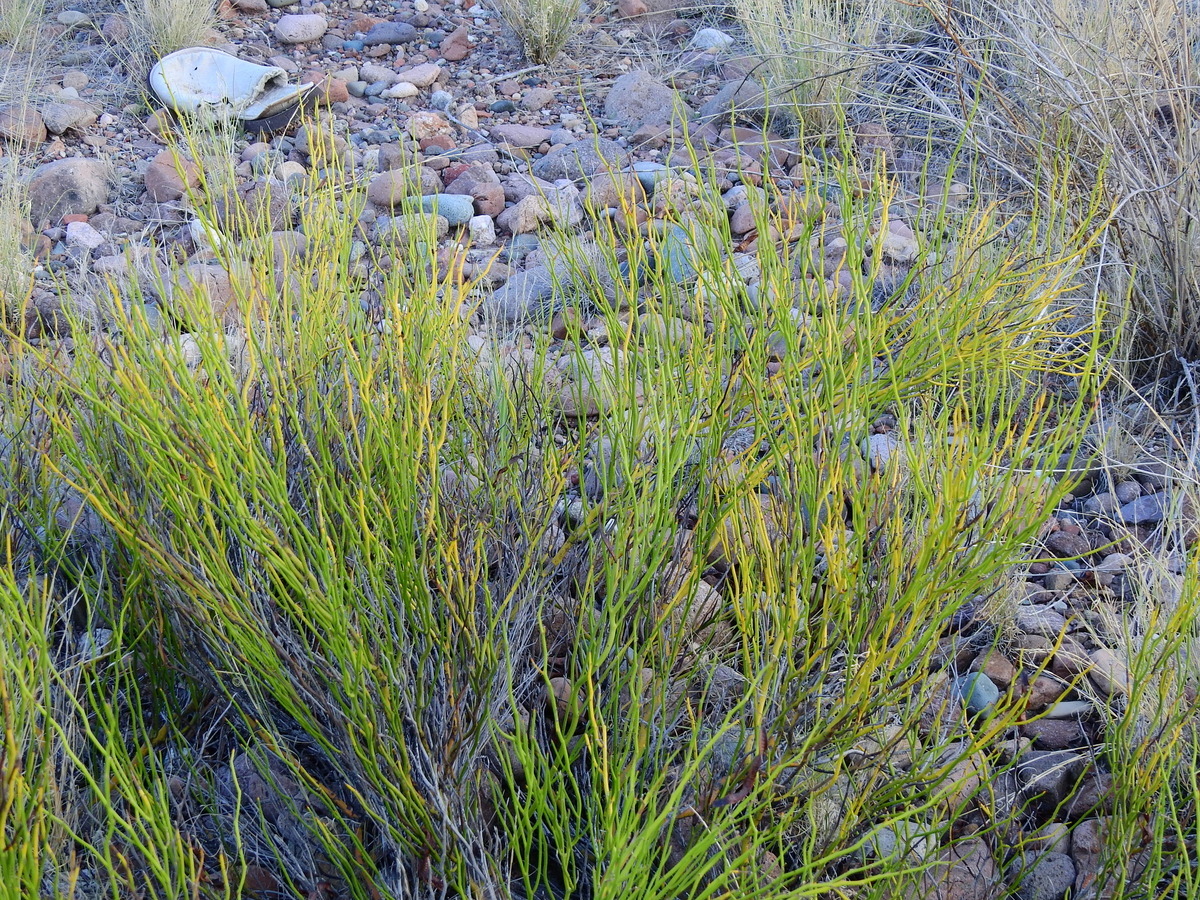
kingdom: Plantae
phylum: Tracheophyta
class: Magnoliopsida
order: Fabales
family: Fabaceae
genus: Senna
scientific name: Senna pachyrrhiza
